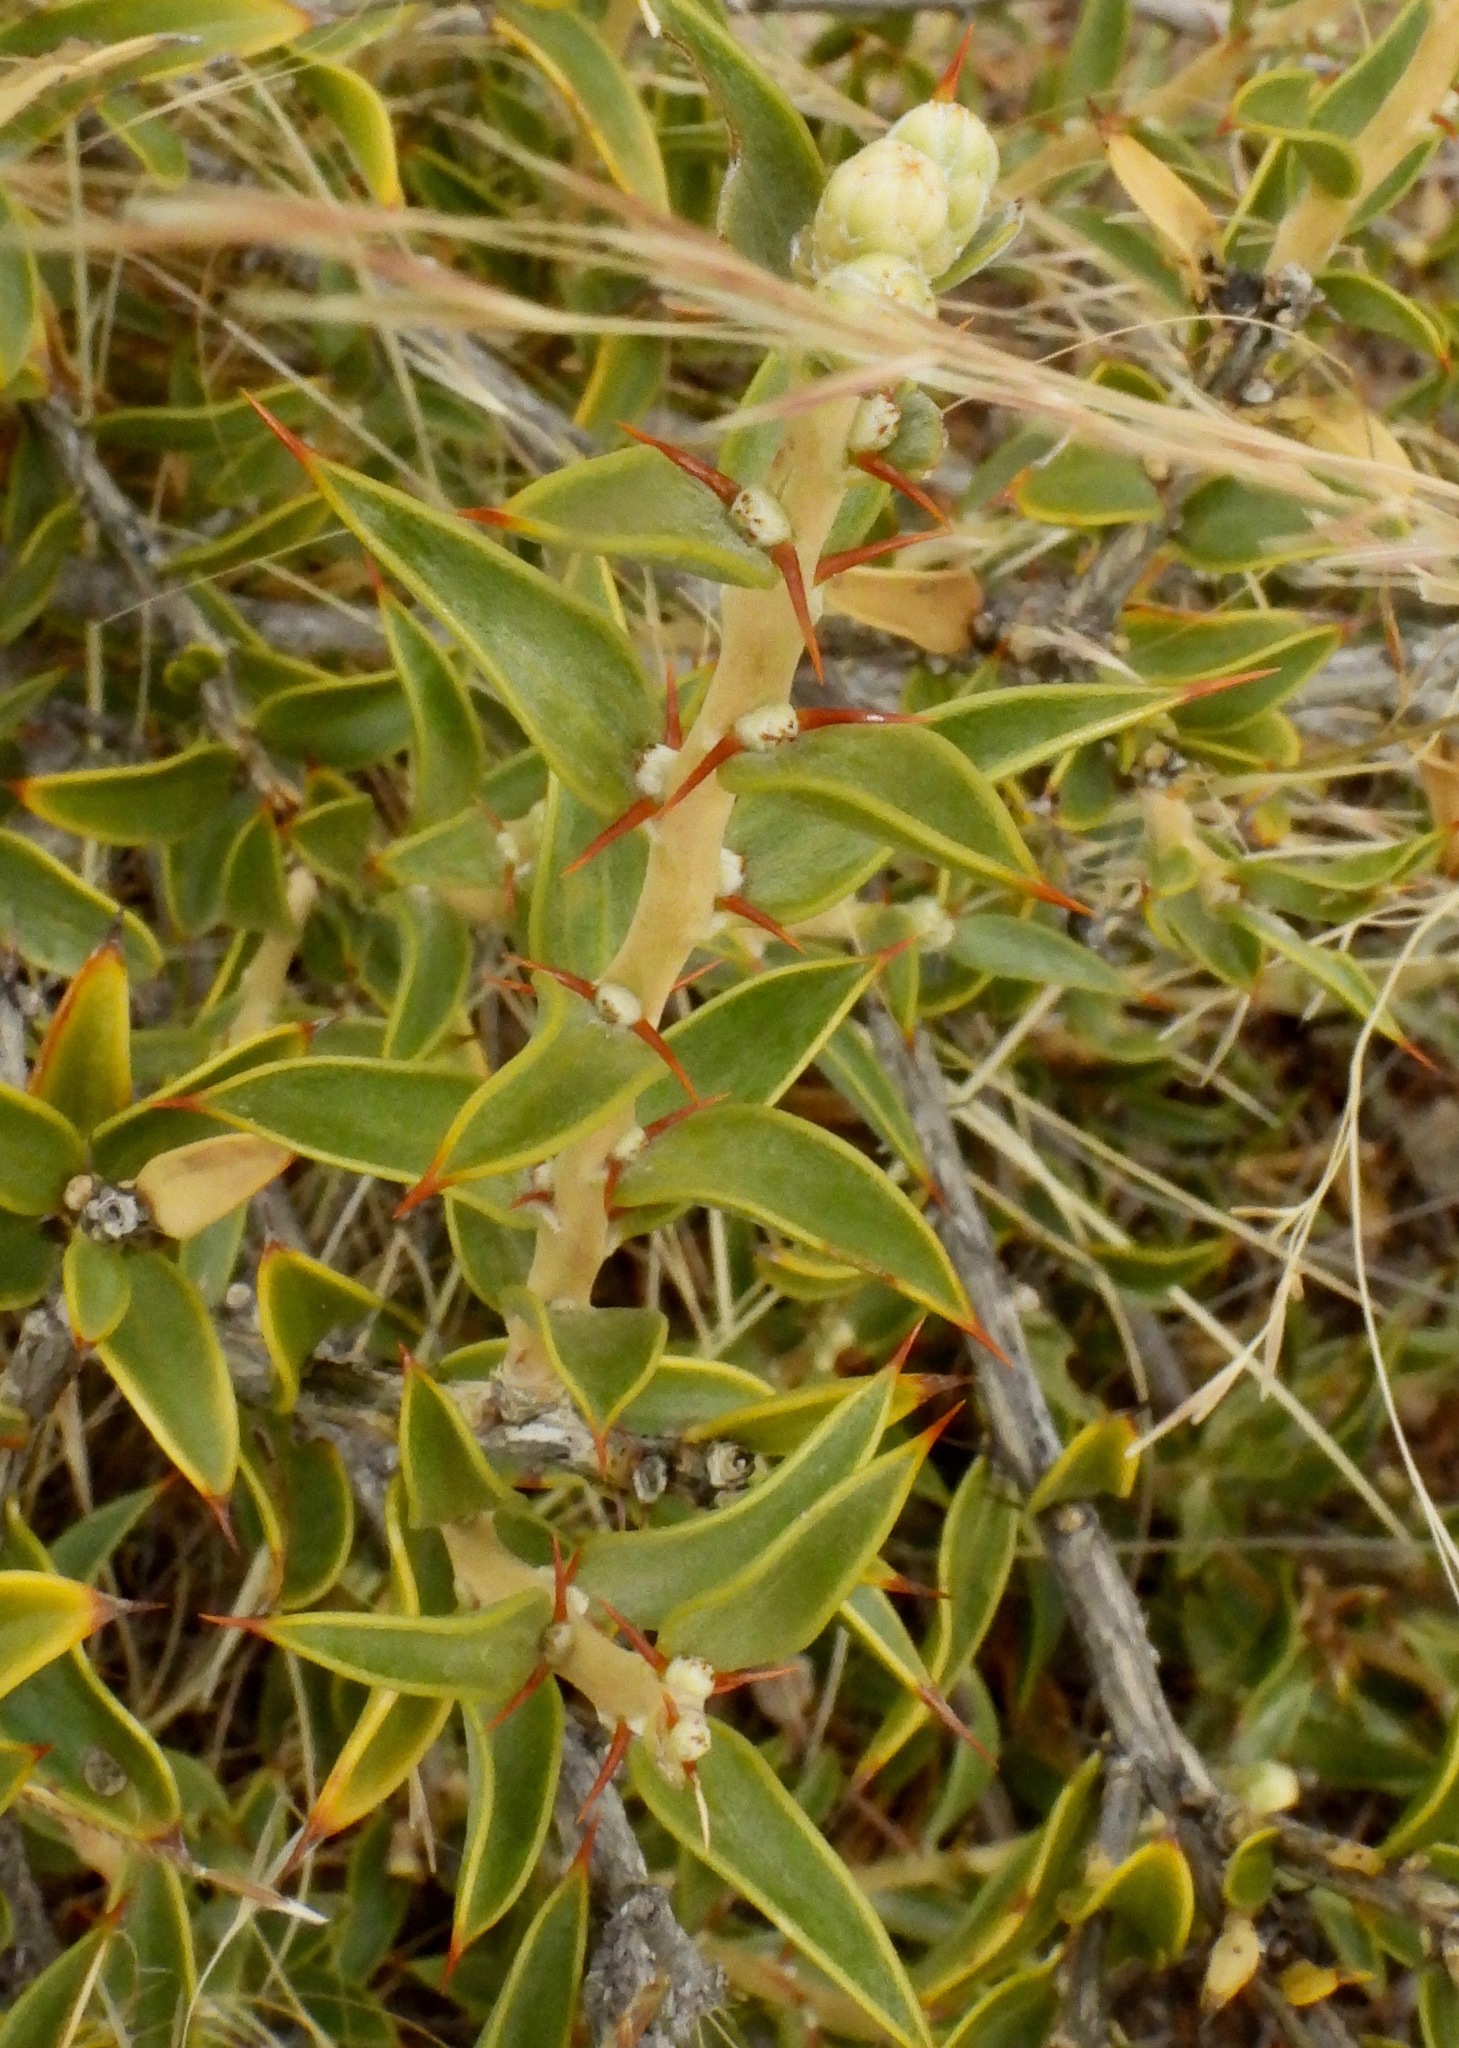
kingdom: Plantae
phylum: Tracheophyta
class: Magnoliopsida
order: Asterales
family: Asteraceae
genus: Chuquiraga
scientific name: Chuquiraga avellanedae
